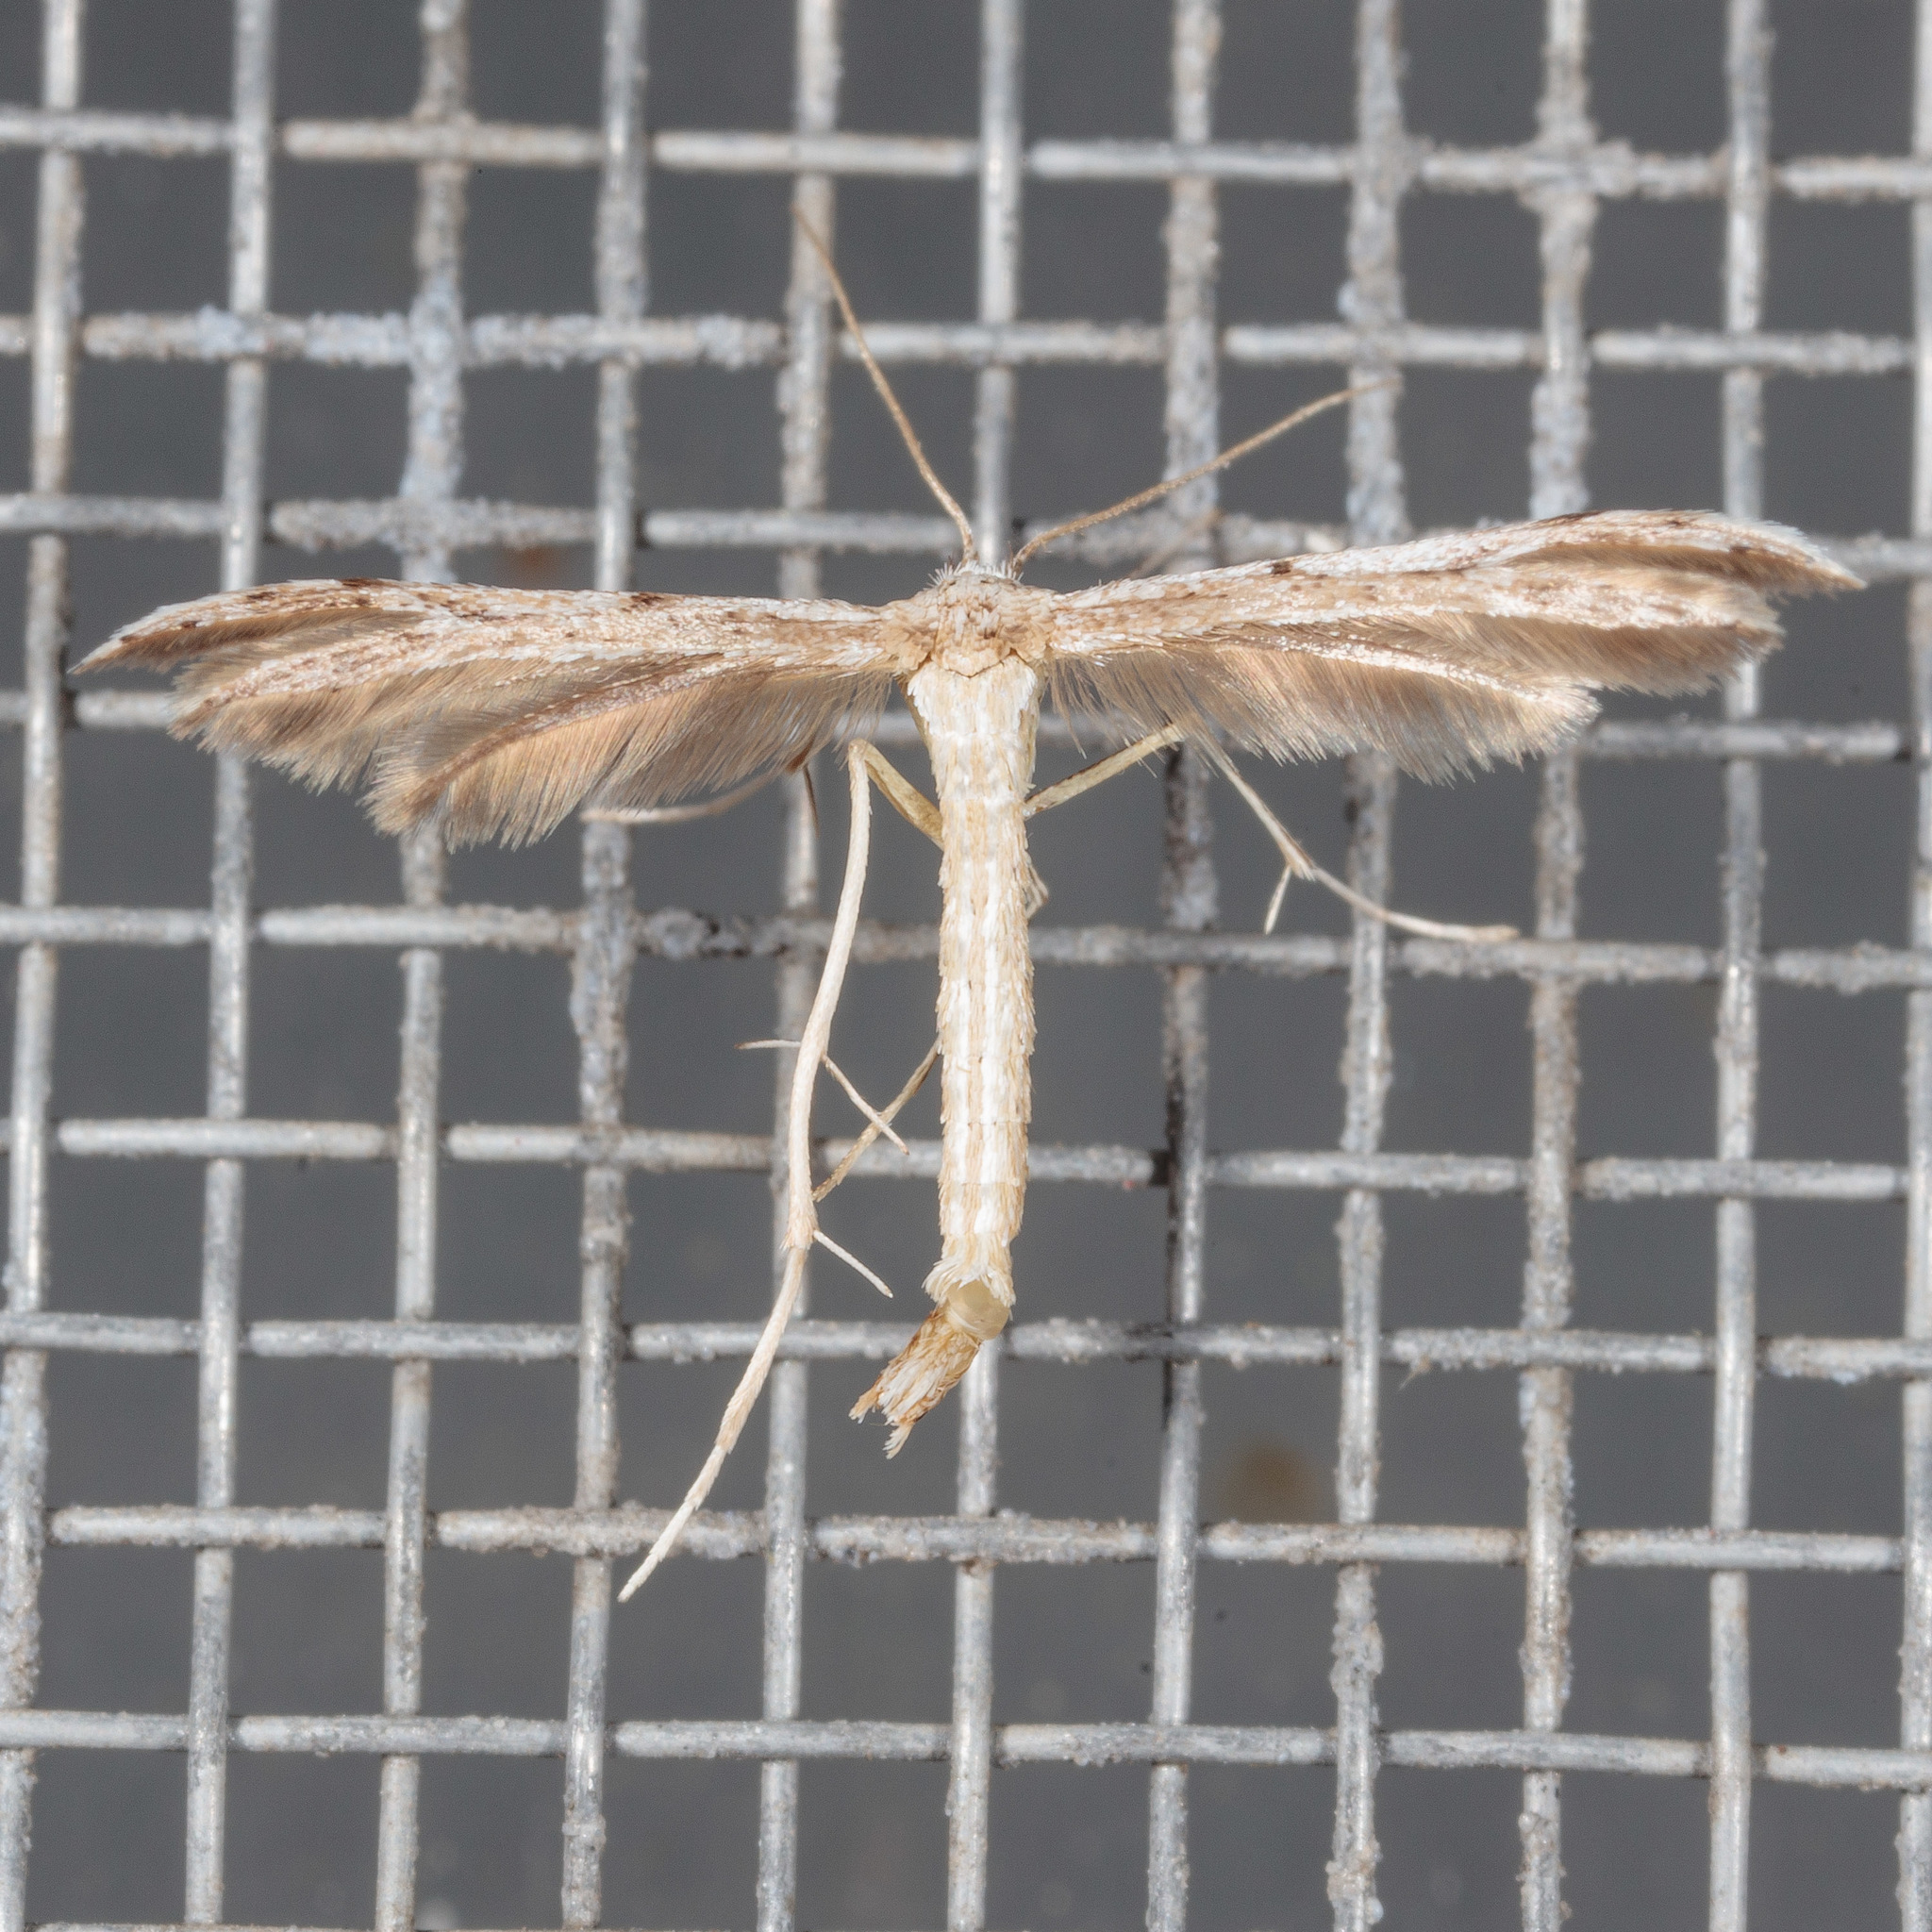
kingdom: Animalia
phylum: Arthropoda
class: Insecta
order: Lepidoptera
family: Pterophoridae
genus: Pselnophorus
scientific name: Pselnophorus belfragei
